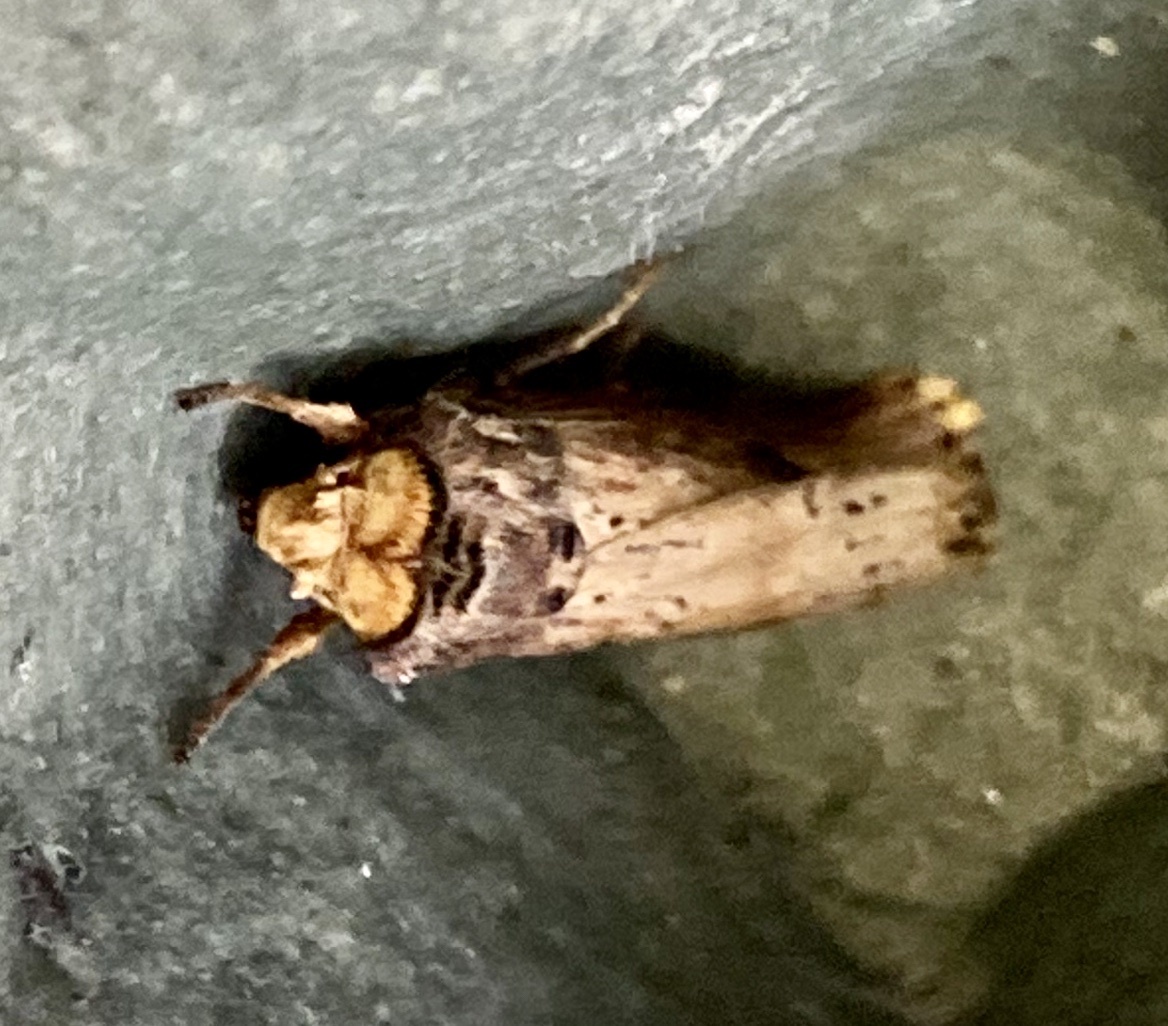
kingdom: Animalia
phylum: Arthropoda
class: Insecta
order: Lepidoptera
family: Noctuidae
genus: Axylia
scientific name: Axylia putris
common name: Flame
